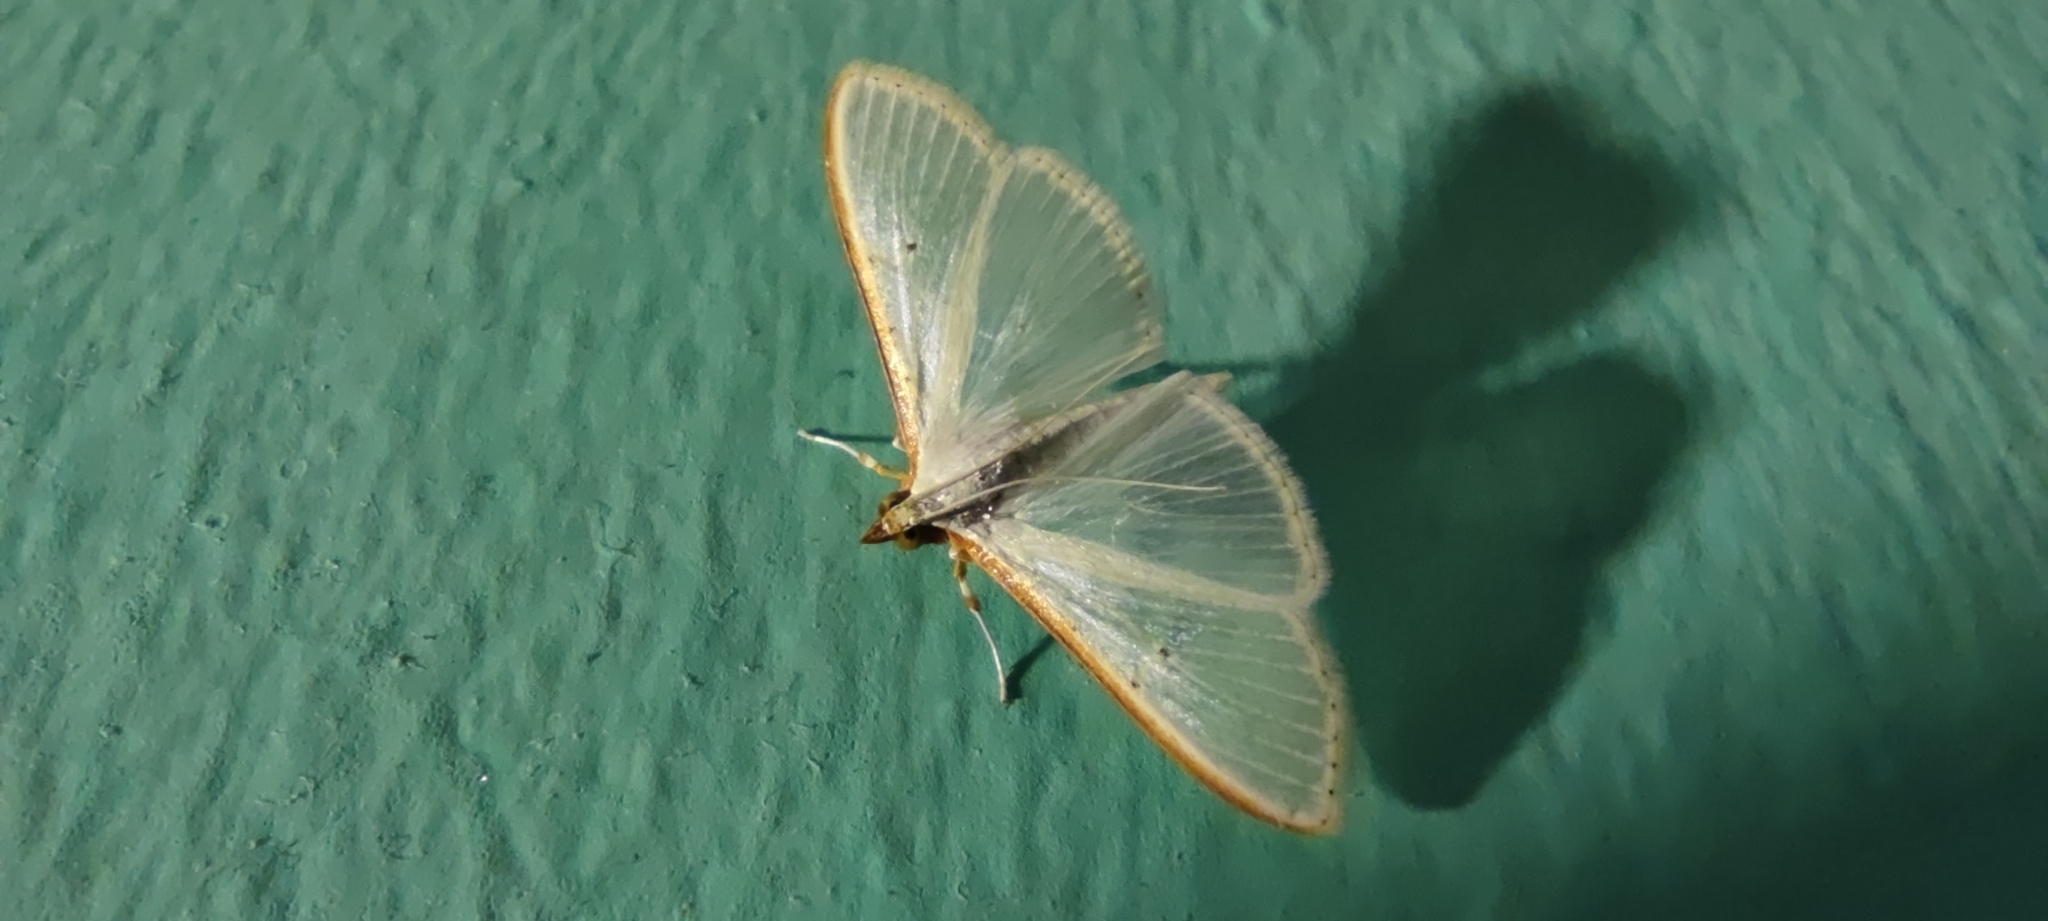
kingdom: Animalia
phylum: Arthropoda
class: Insecta
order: Lepidoptera
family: Crambidae
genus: Palpita
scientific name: Palpita vitrealis
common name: Olive-tree pearl
